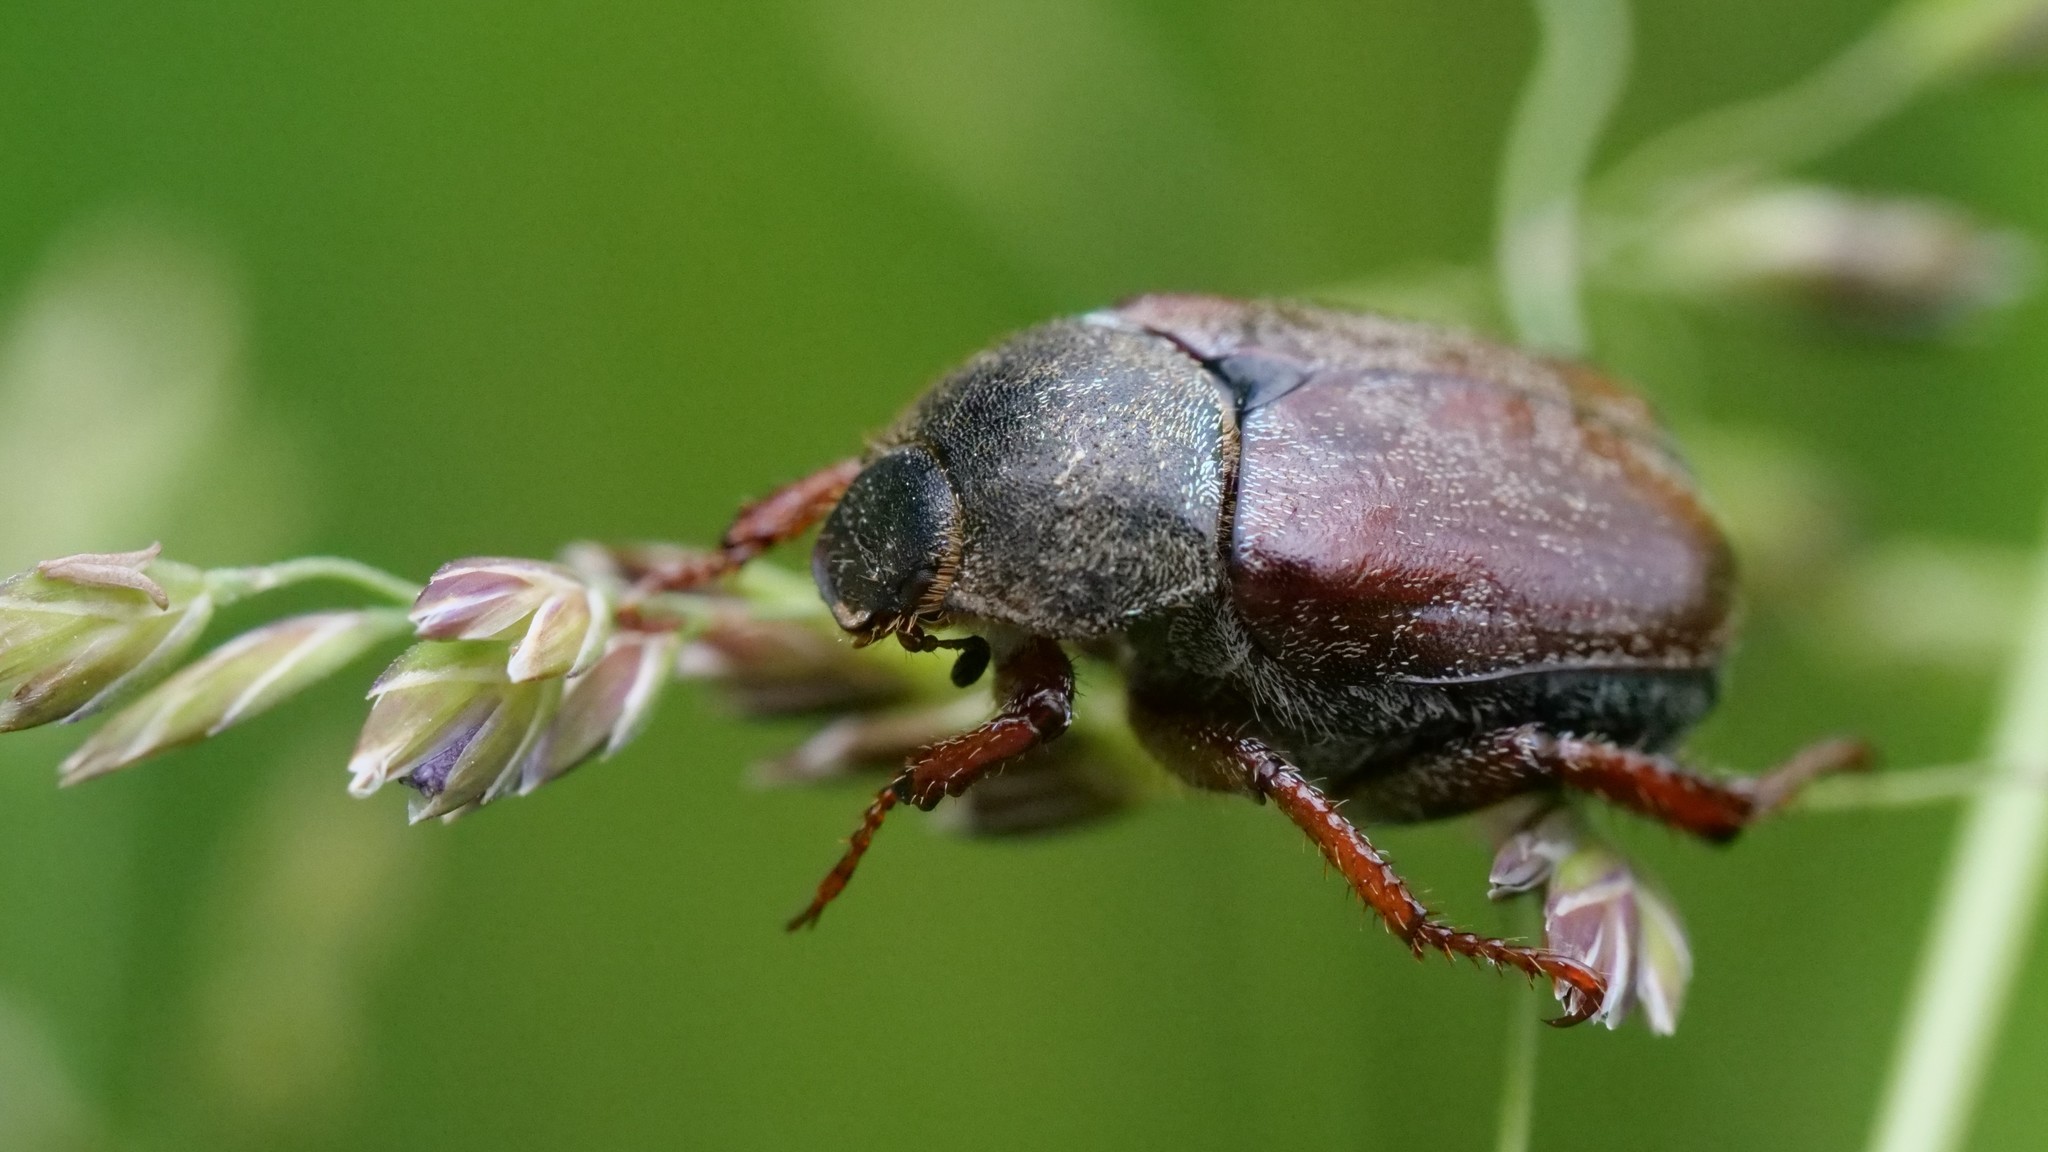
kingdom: Animalia
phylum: Arthropoda
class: Insecta
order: Coleoptera
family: Scarabaeidae
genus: Hoplia
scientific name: Hoplia philanthus
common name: Welsh chafer
